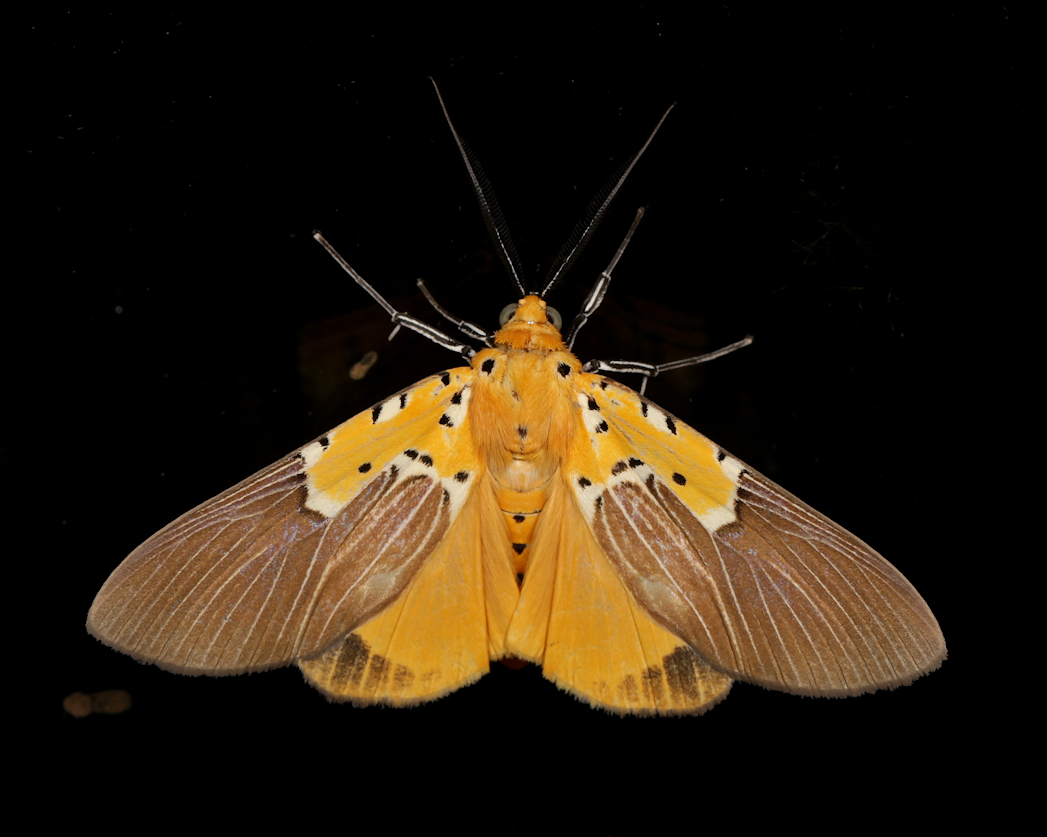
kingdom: Animalia
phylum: Arthropoda
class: Insecta
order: Lepidoptera
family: Erebidae
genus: Asota
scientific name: Asota speciosa
